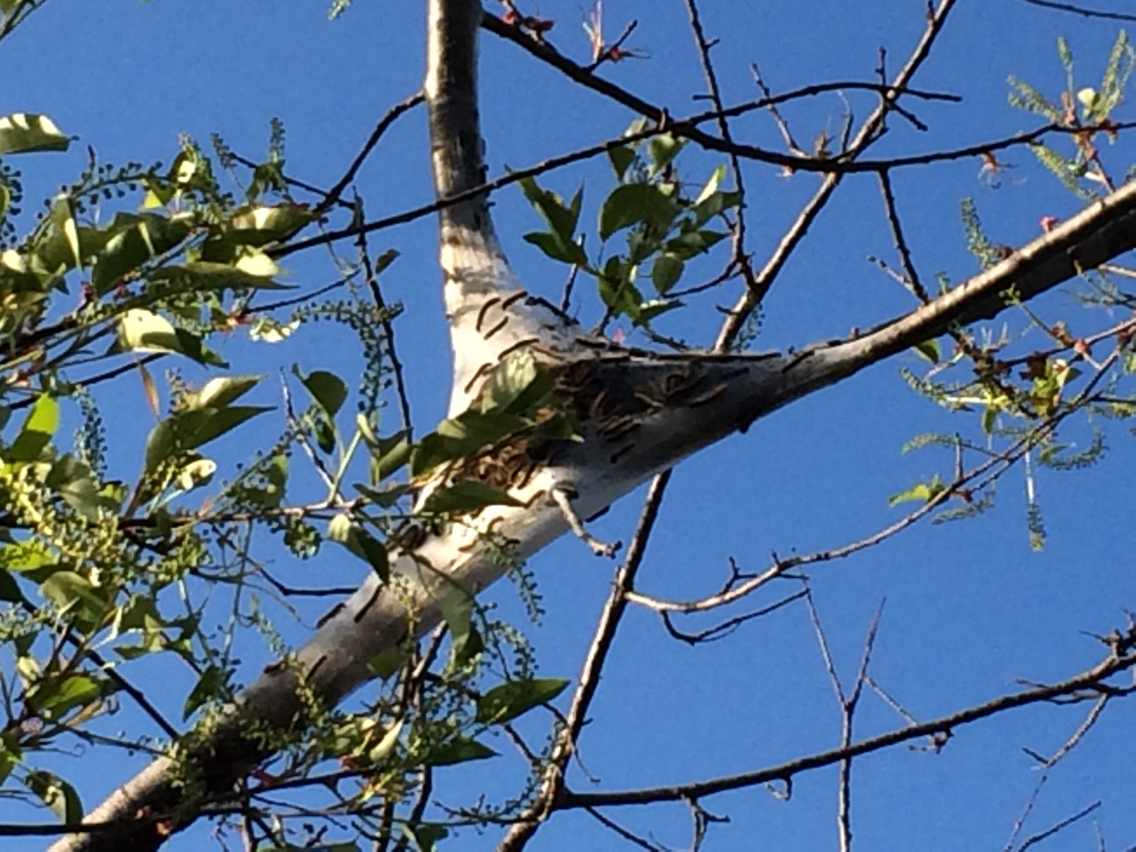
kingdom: Animalia
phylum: Arthropoda
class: Insecta
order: Lepidoptera
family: Lasiocampidae
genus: Malacosoma
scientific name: Malacosoma americana
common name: Eastern tent caterpillar moth
